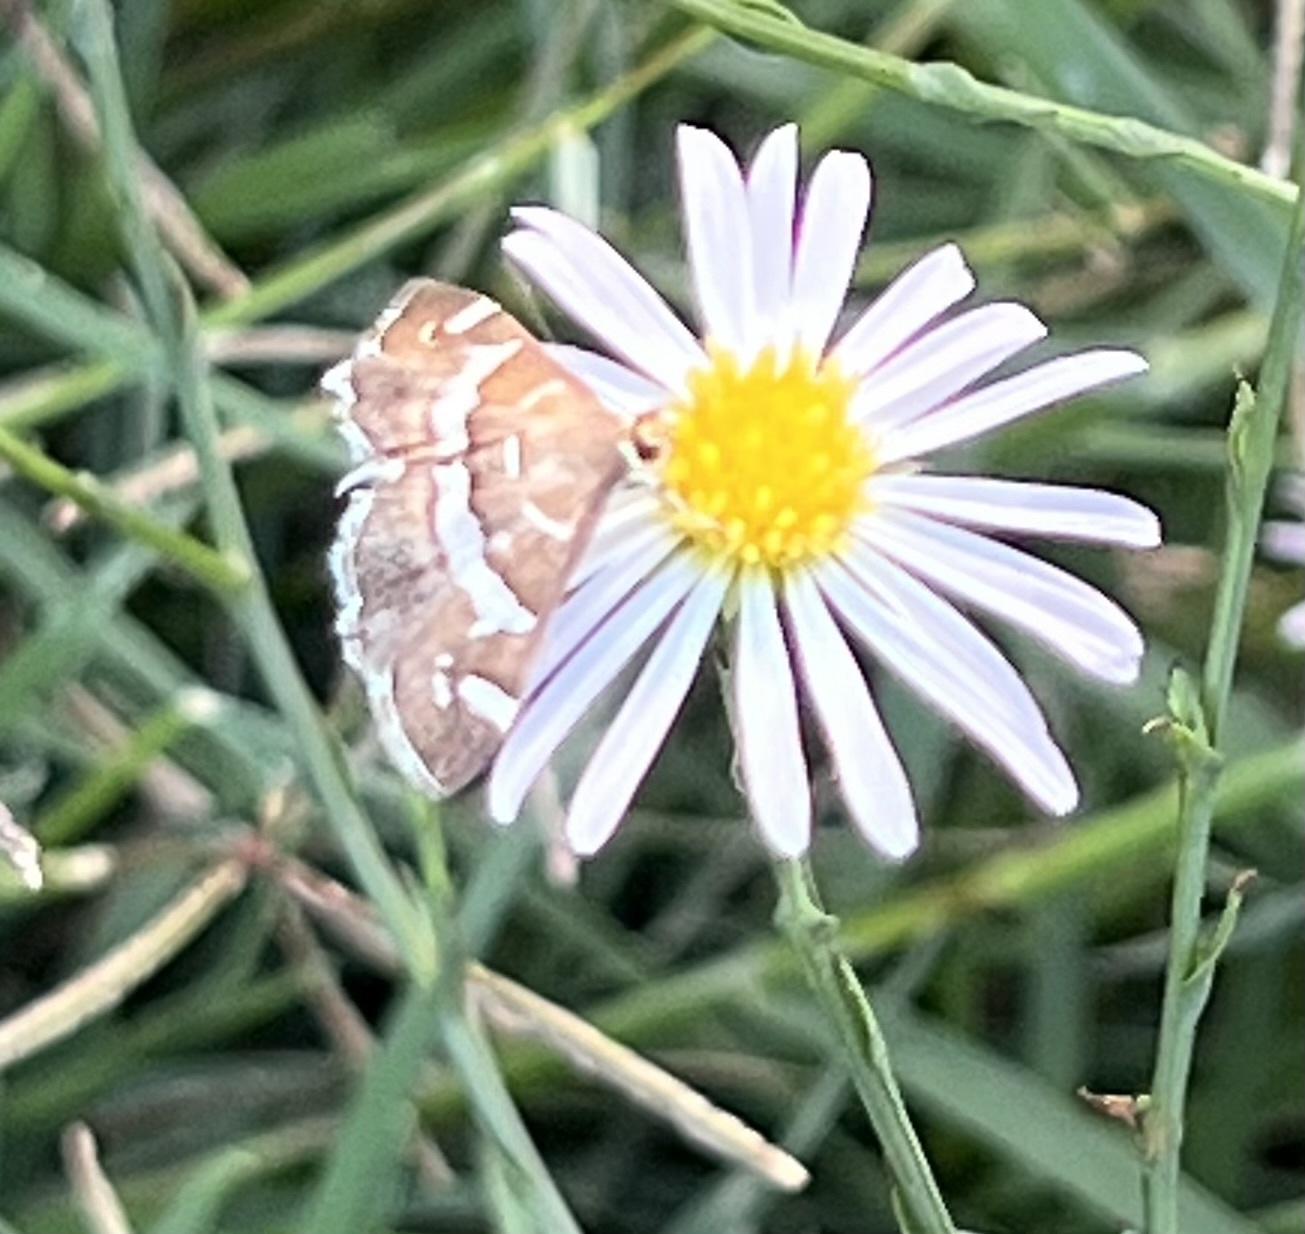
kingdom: Animalia
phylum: Arthropoda
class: Insecta
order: Lepidoptera
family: Crambidae
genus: Spoladea
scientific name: Spoladea recurvalis
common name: Beet webworm moth
